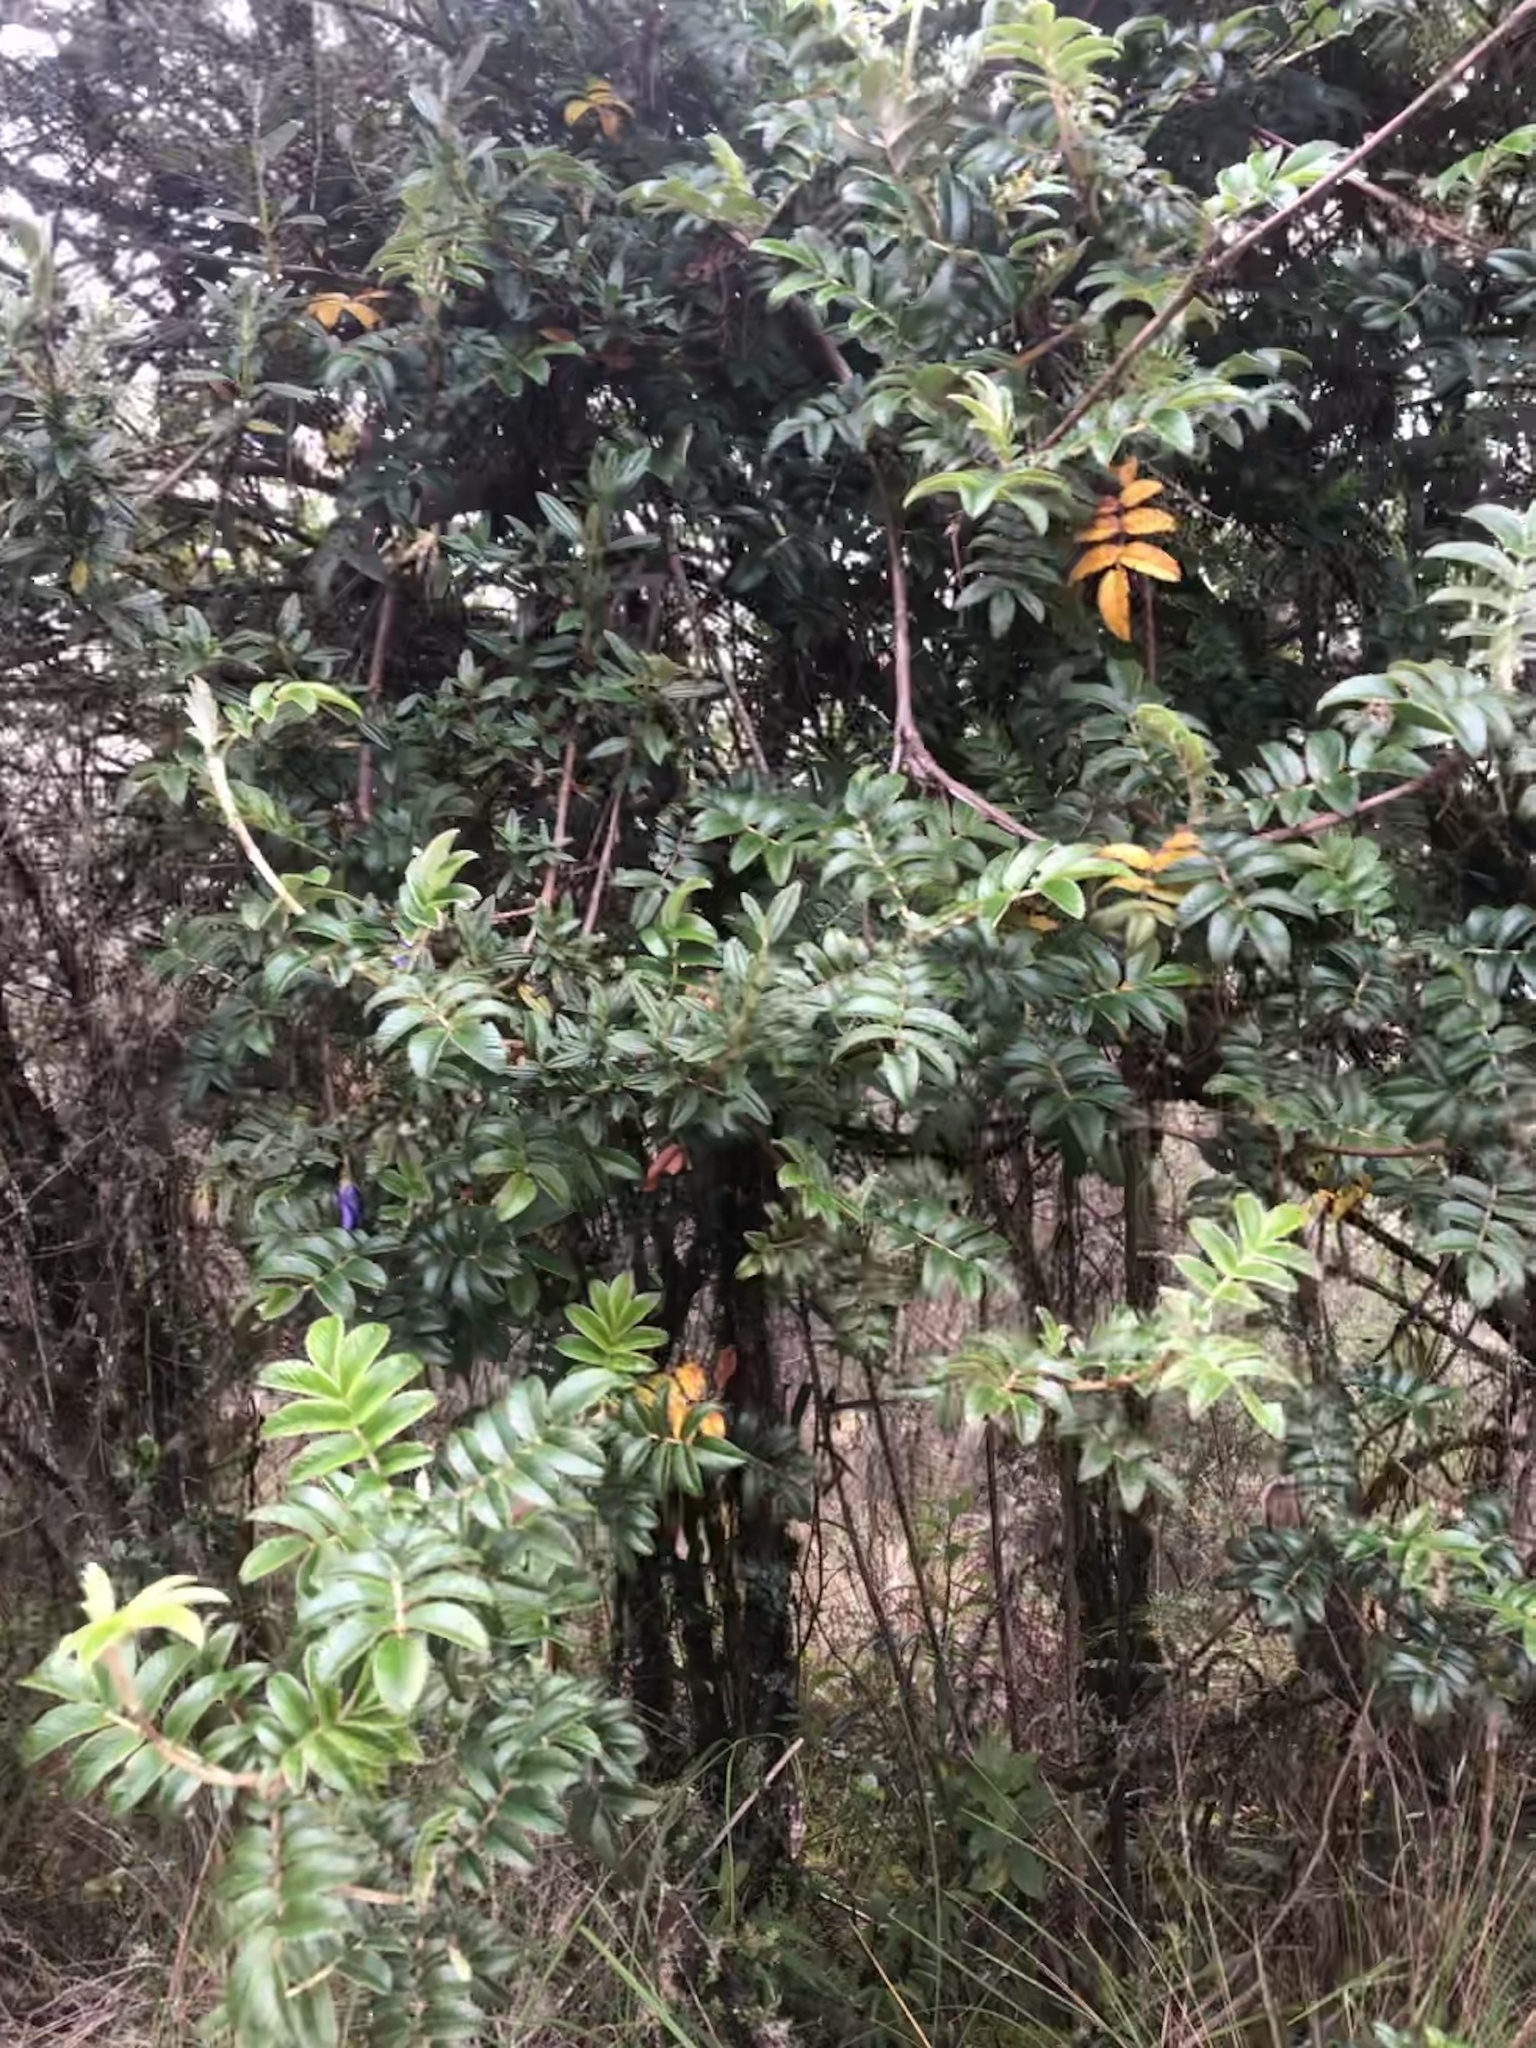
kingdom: Plantae
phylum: Tracheophyta
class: Magnoliopsida
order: Rosales
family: Rosaceae
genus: Polylepis
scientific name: Polylepis serrata
